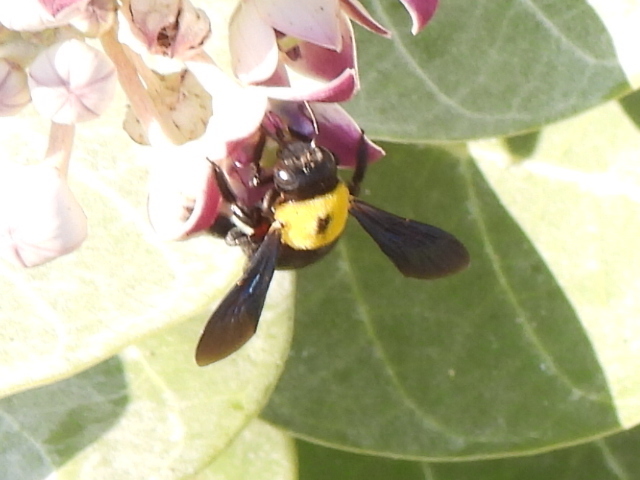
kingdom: Animalia
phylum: Arthropoda
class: Insecta
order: Hymenoptera
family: Apidae
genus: Xylocopa
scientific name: Xylocopa pubescens
